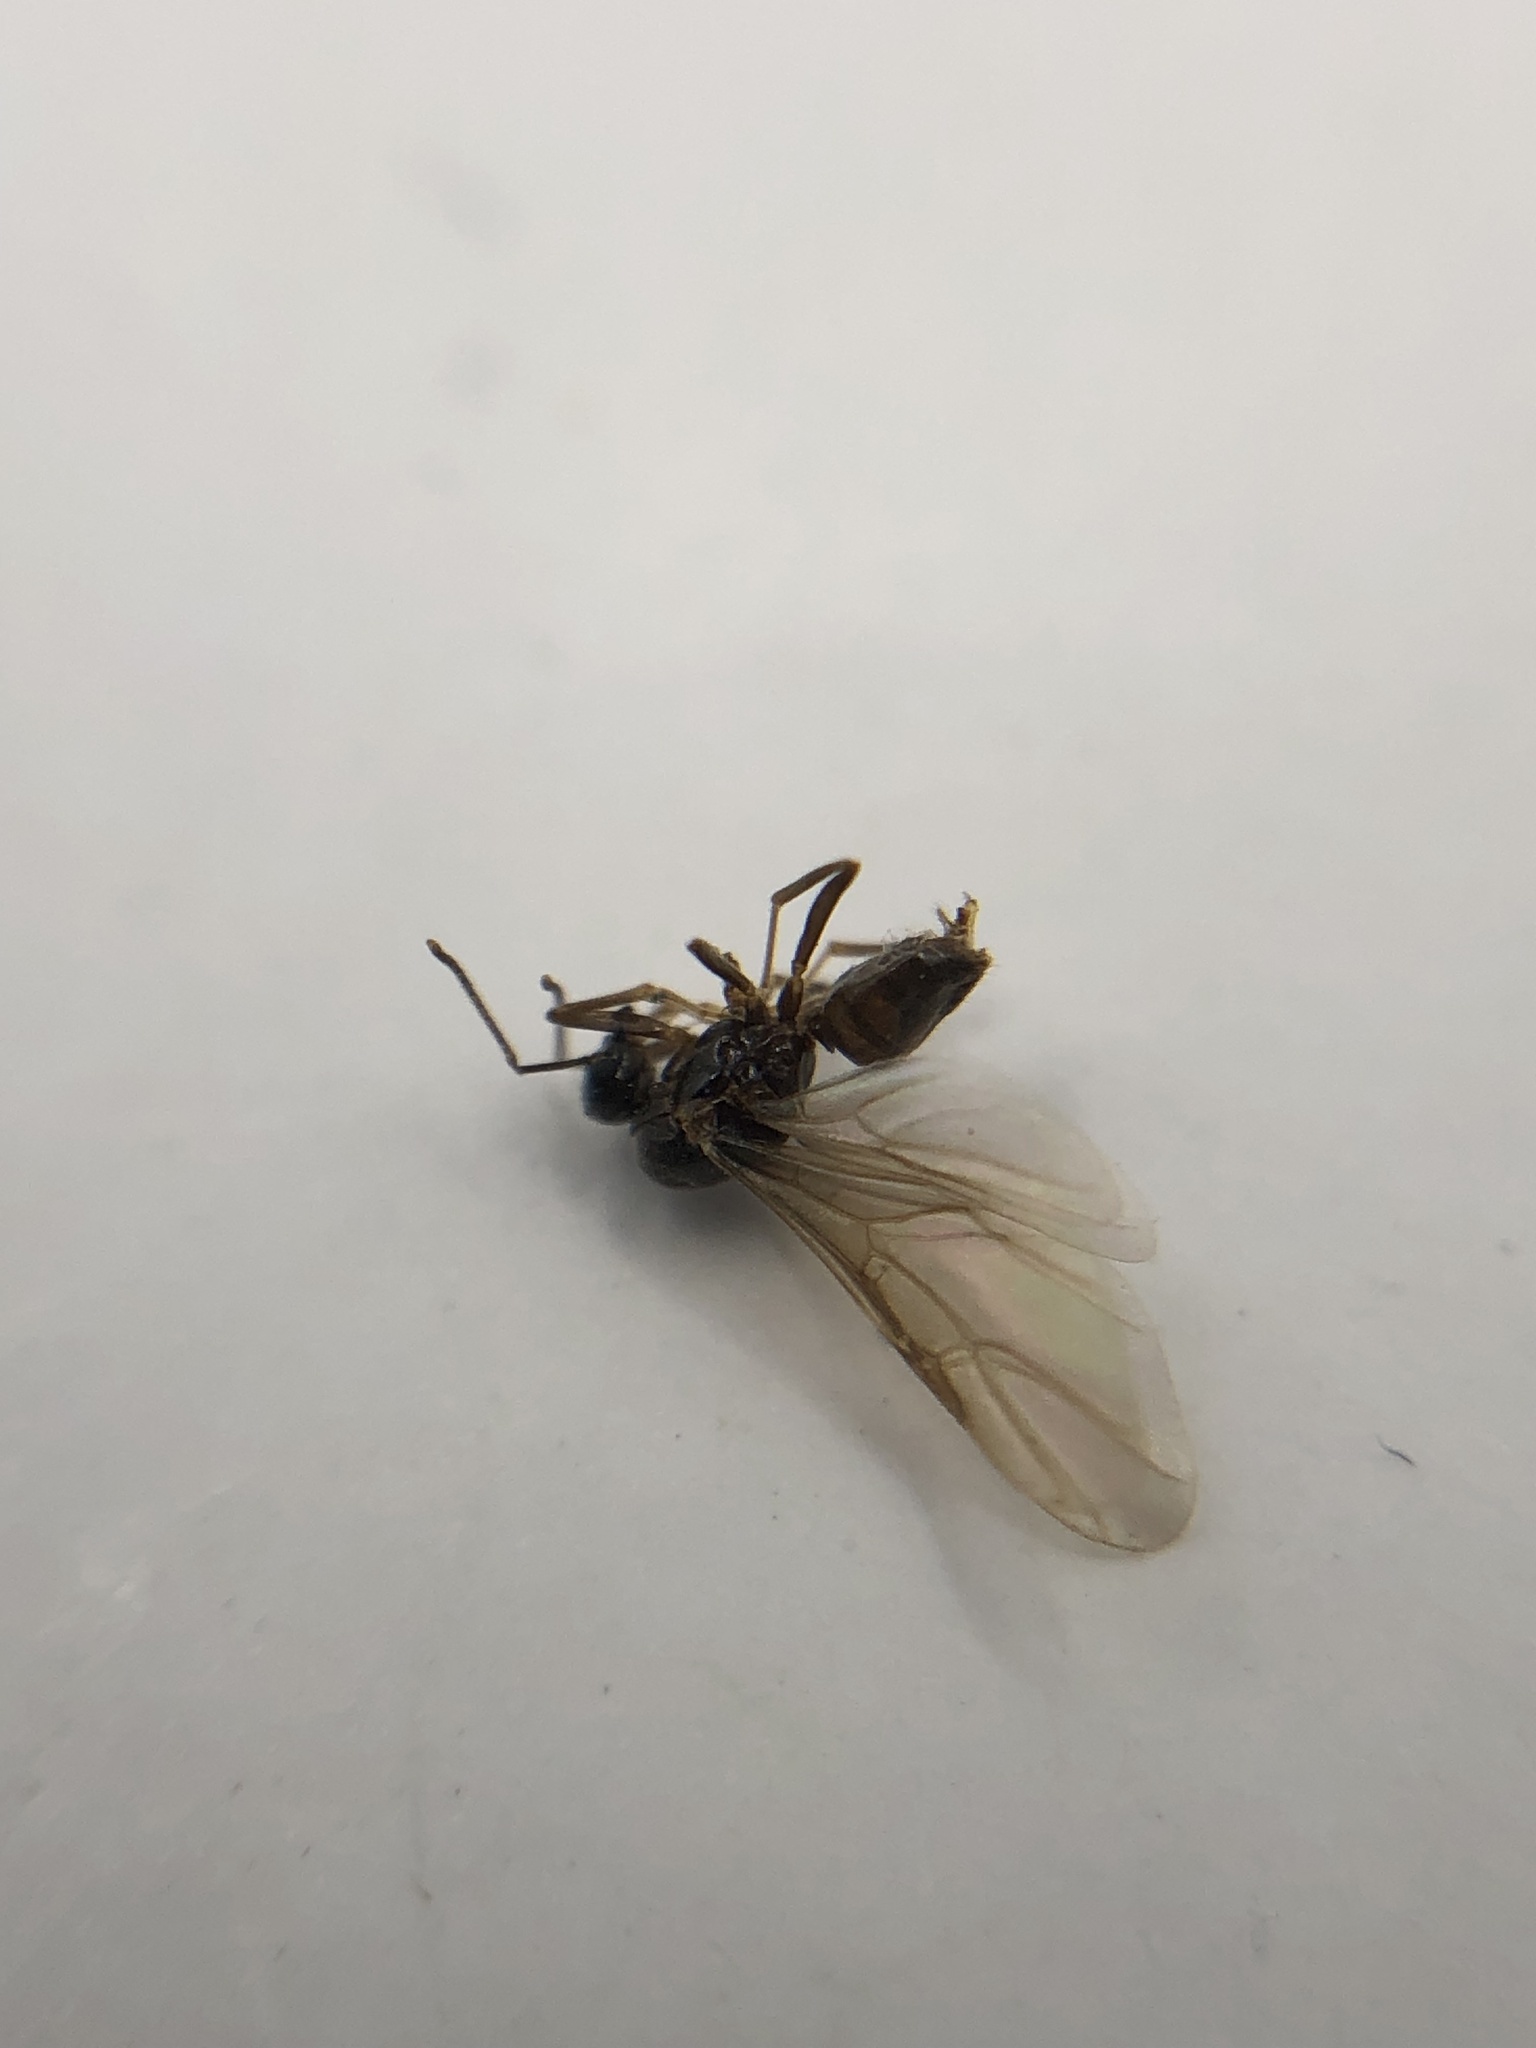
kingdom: Animalia
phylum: Arthropoda
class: Insecta
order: Hymenoptera
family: Formicidae
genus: Prenolepis
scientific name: Prenolepis imparis
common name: Small honey ant
